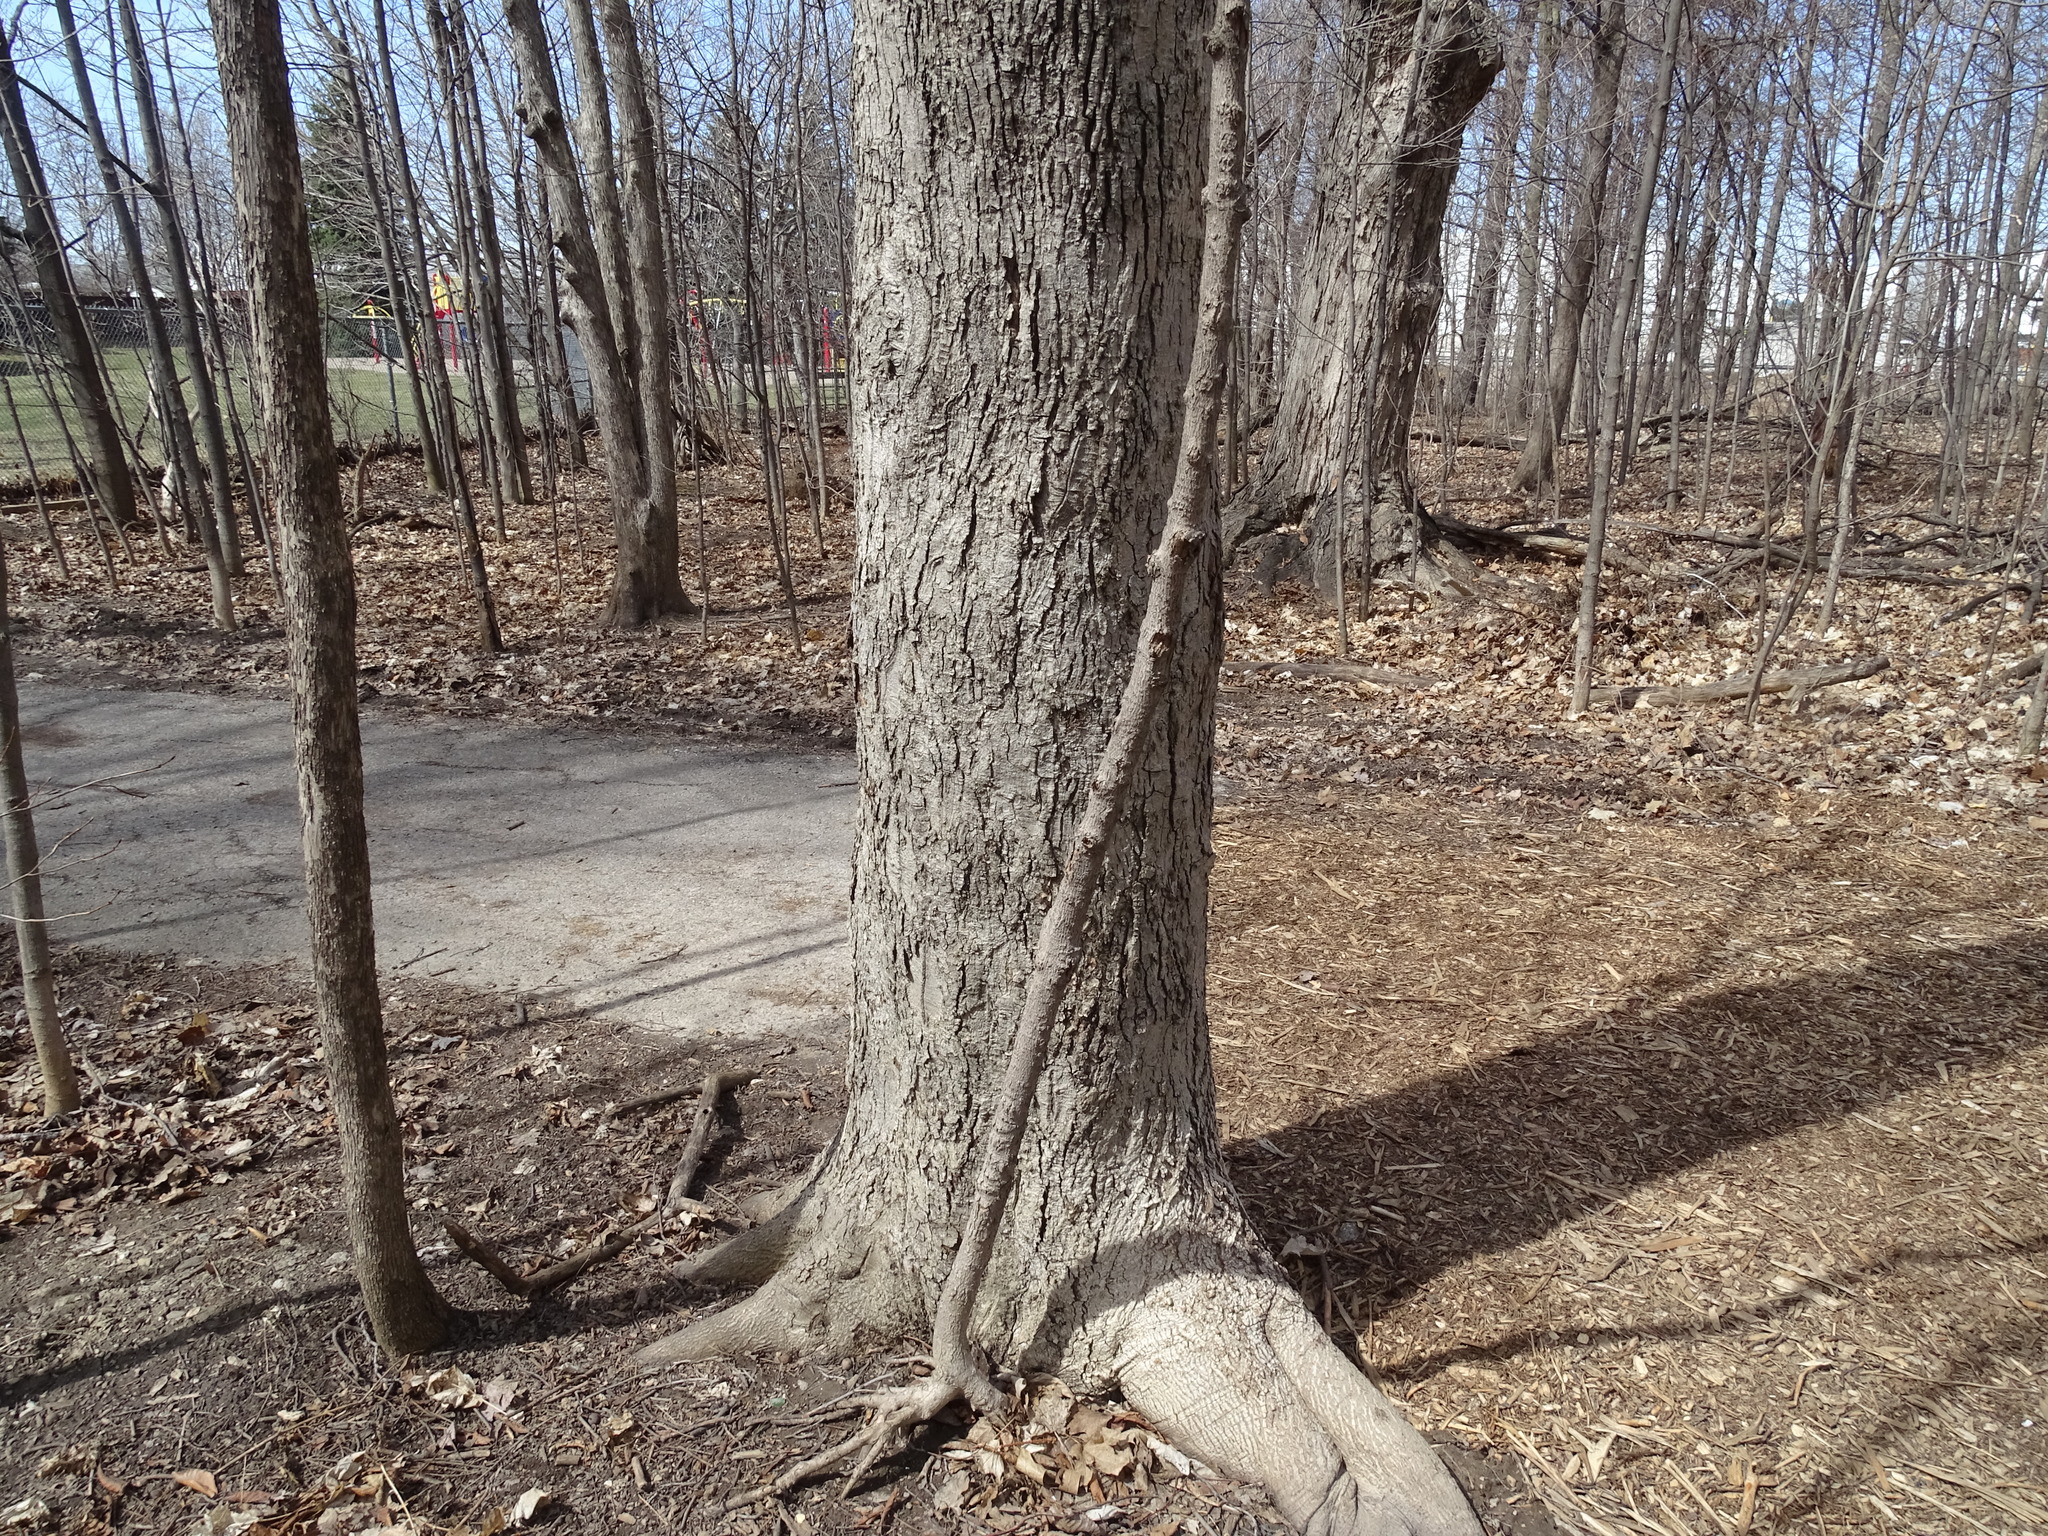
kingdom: Plantae
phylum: Tracheophyta
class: Magnoliopsida
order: Fagales
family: Juglandaceae
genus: Carya
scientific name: Carya cordiformis
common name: Bitternut hickory
